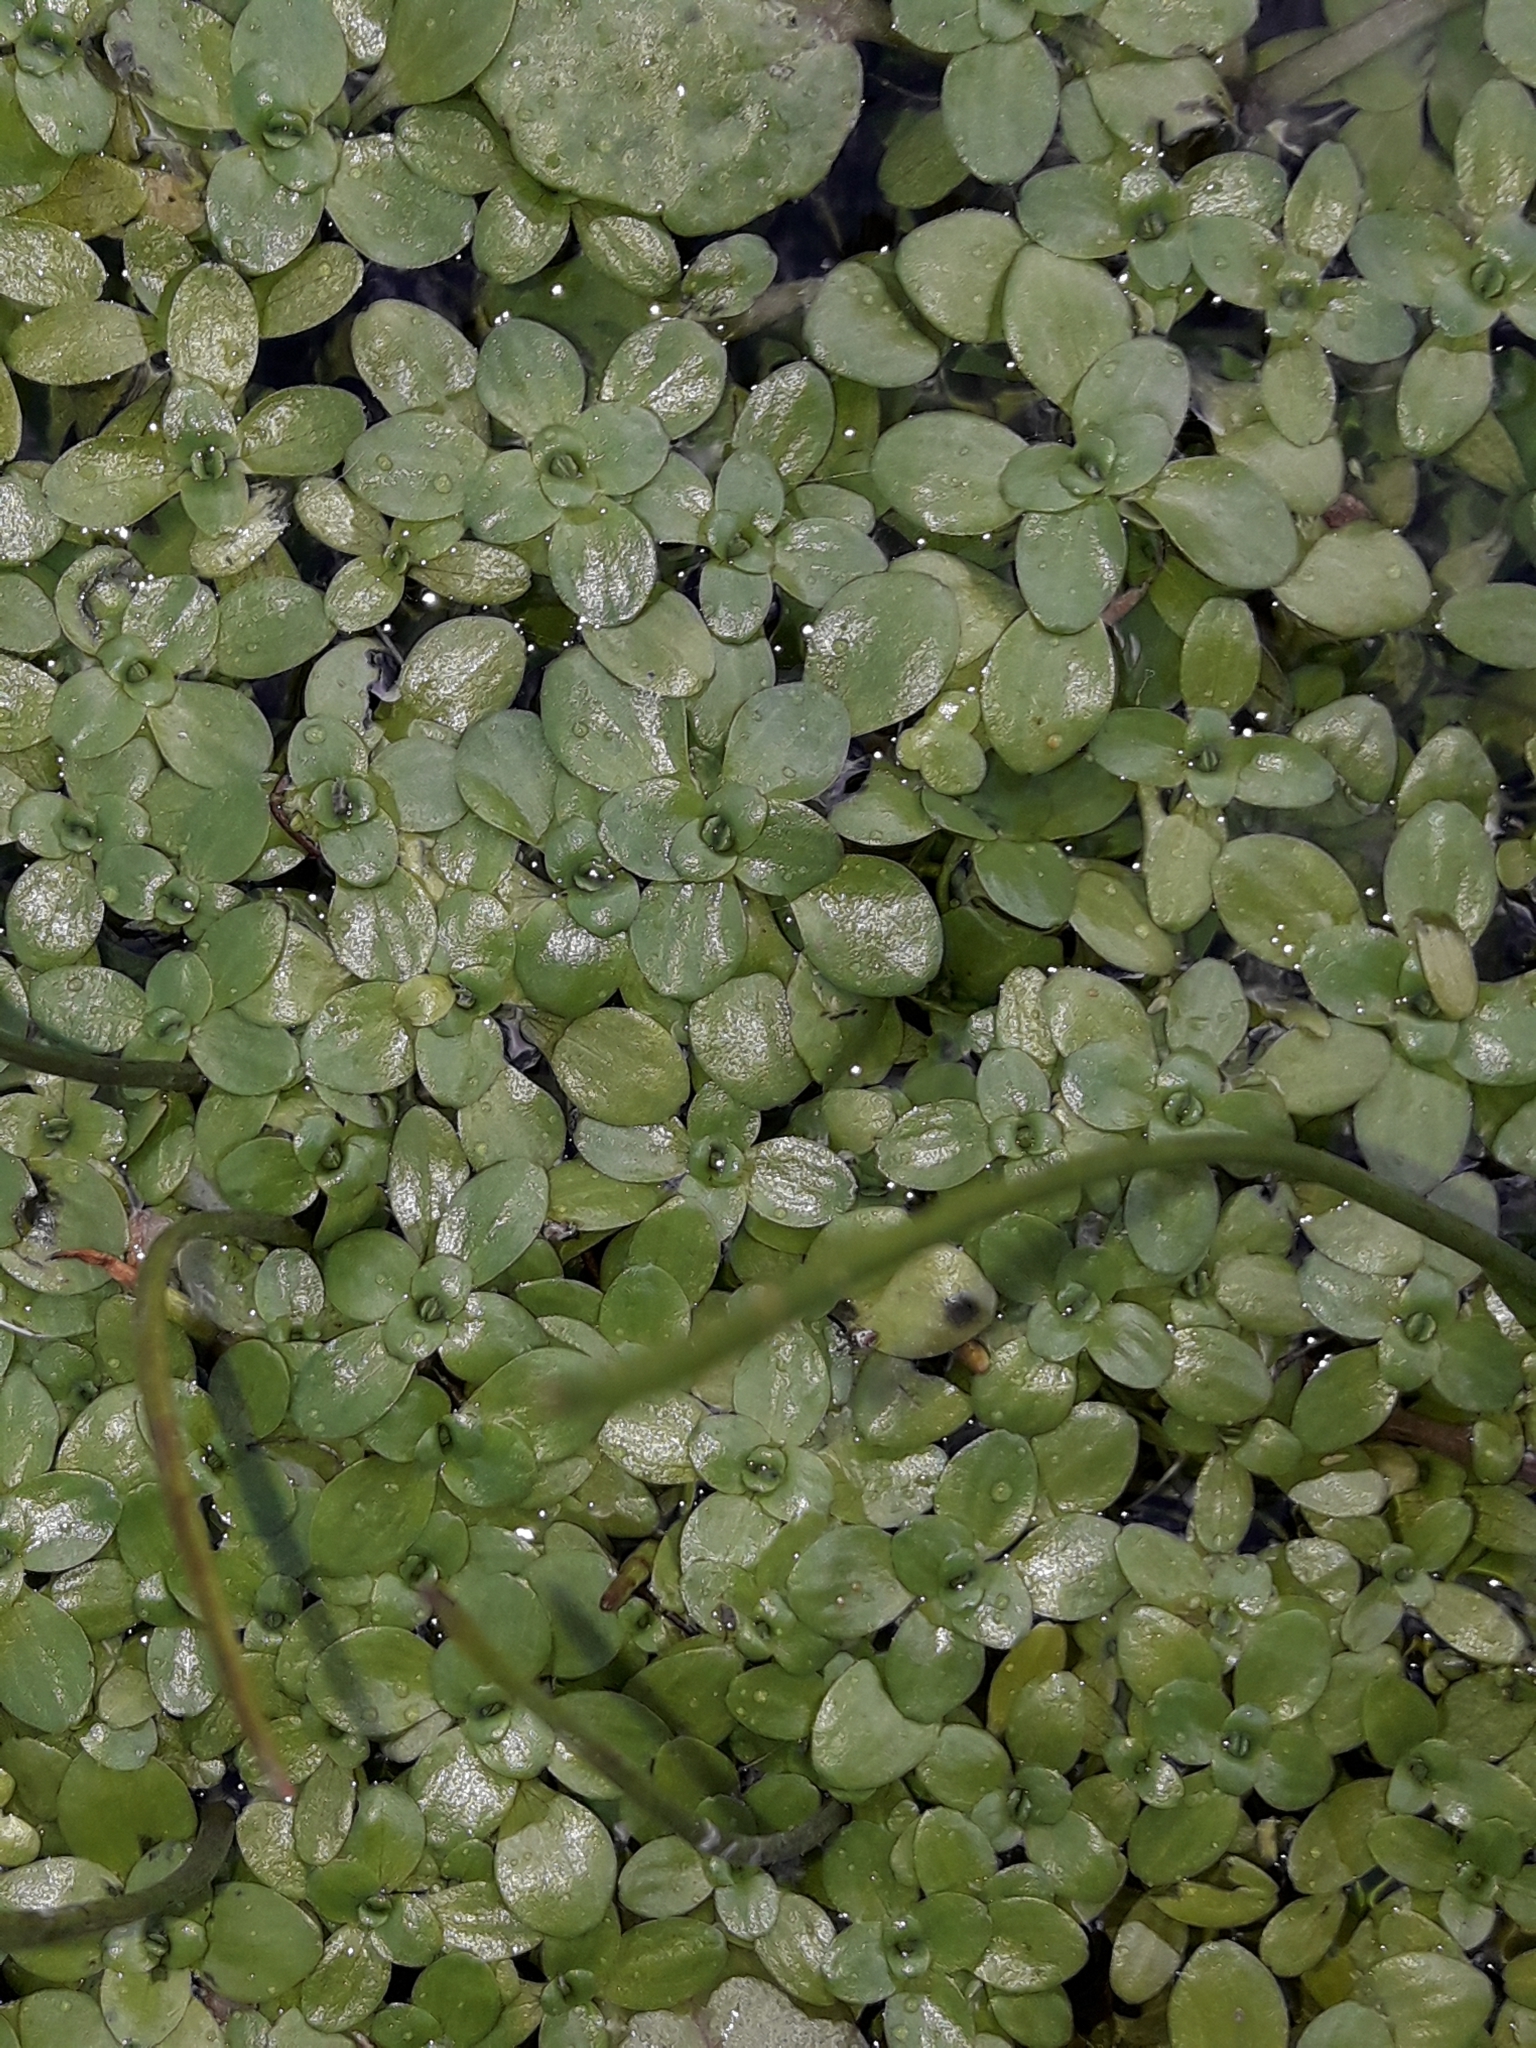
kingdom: Plantae
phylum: Tracheophyta
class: Magnoliopsida
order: Lamiales
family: Plantaginaceae
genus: Callitriche
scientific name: Callitriche stagnalis
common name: Common water-starwort
